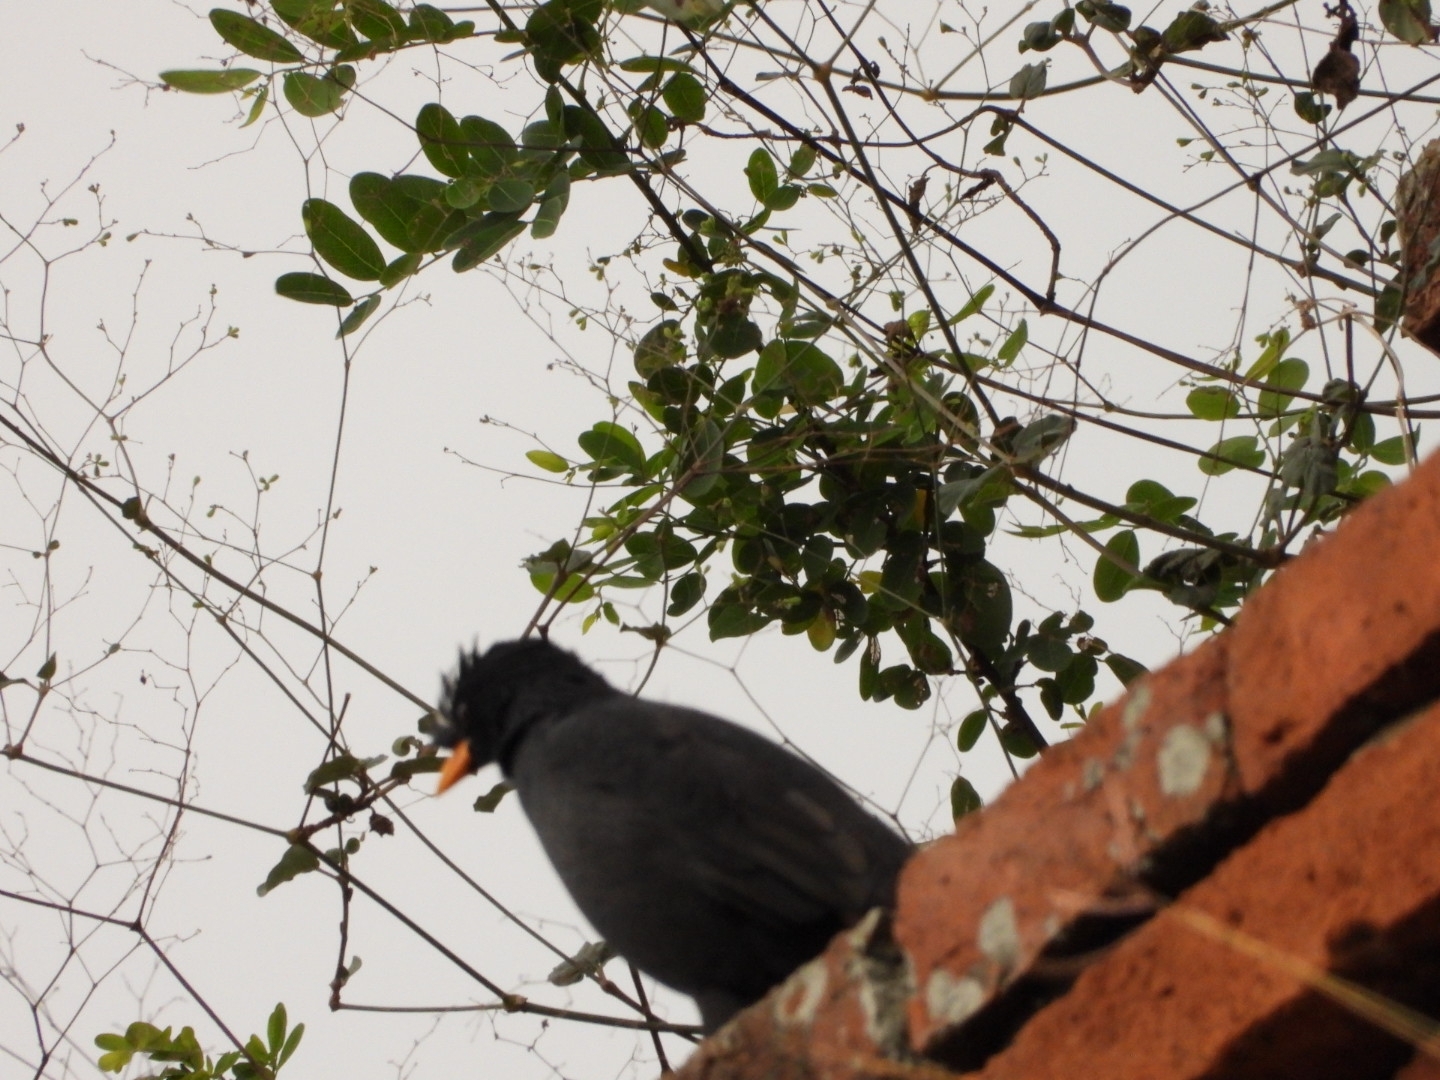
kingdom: Animalia
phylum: Chordata
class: Aves
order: Passeriformes
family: Sturnidae
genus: Acridotheres
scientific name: Acridotheres grandis
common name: Great myna
